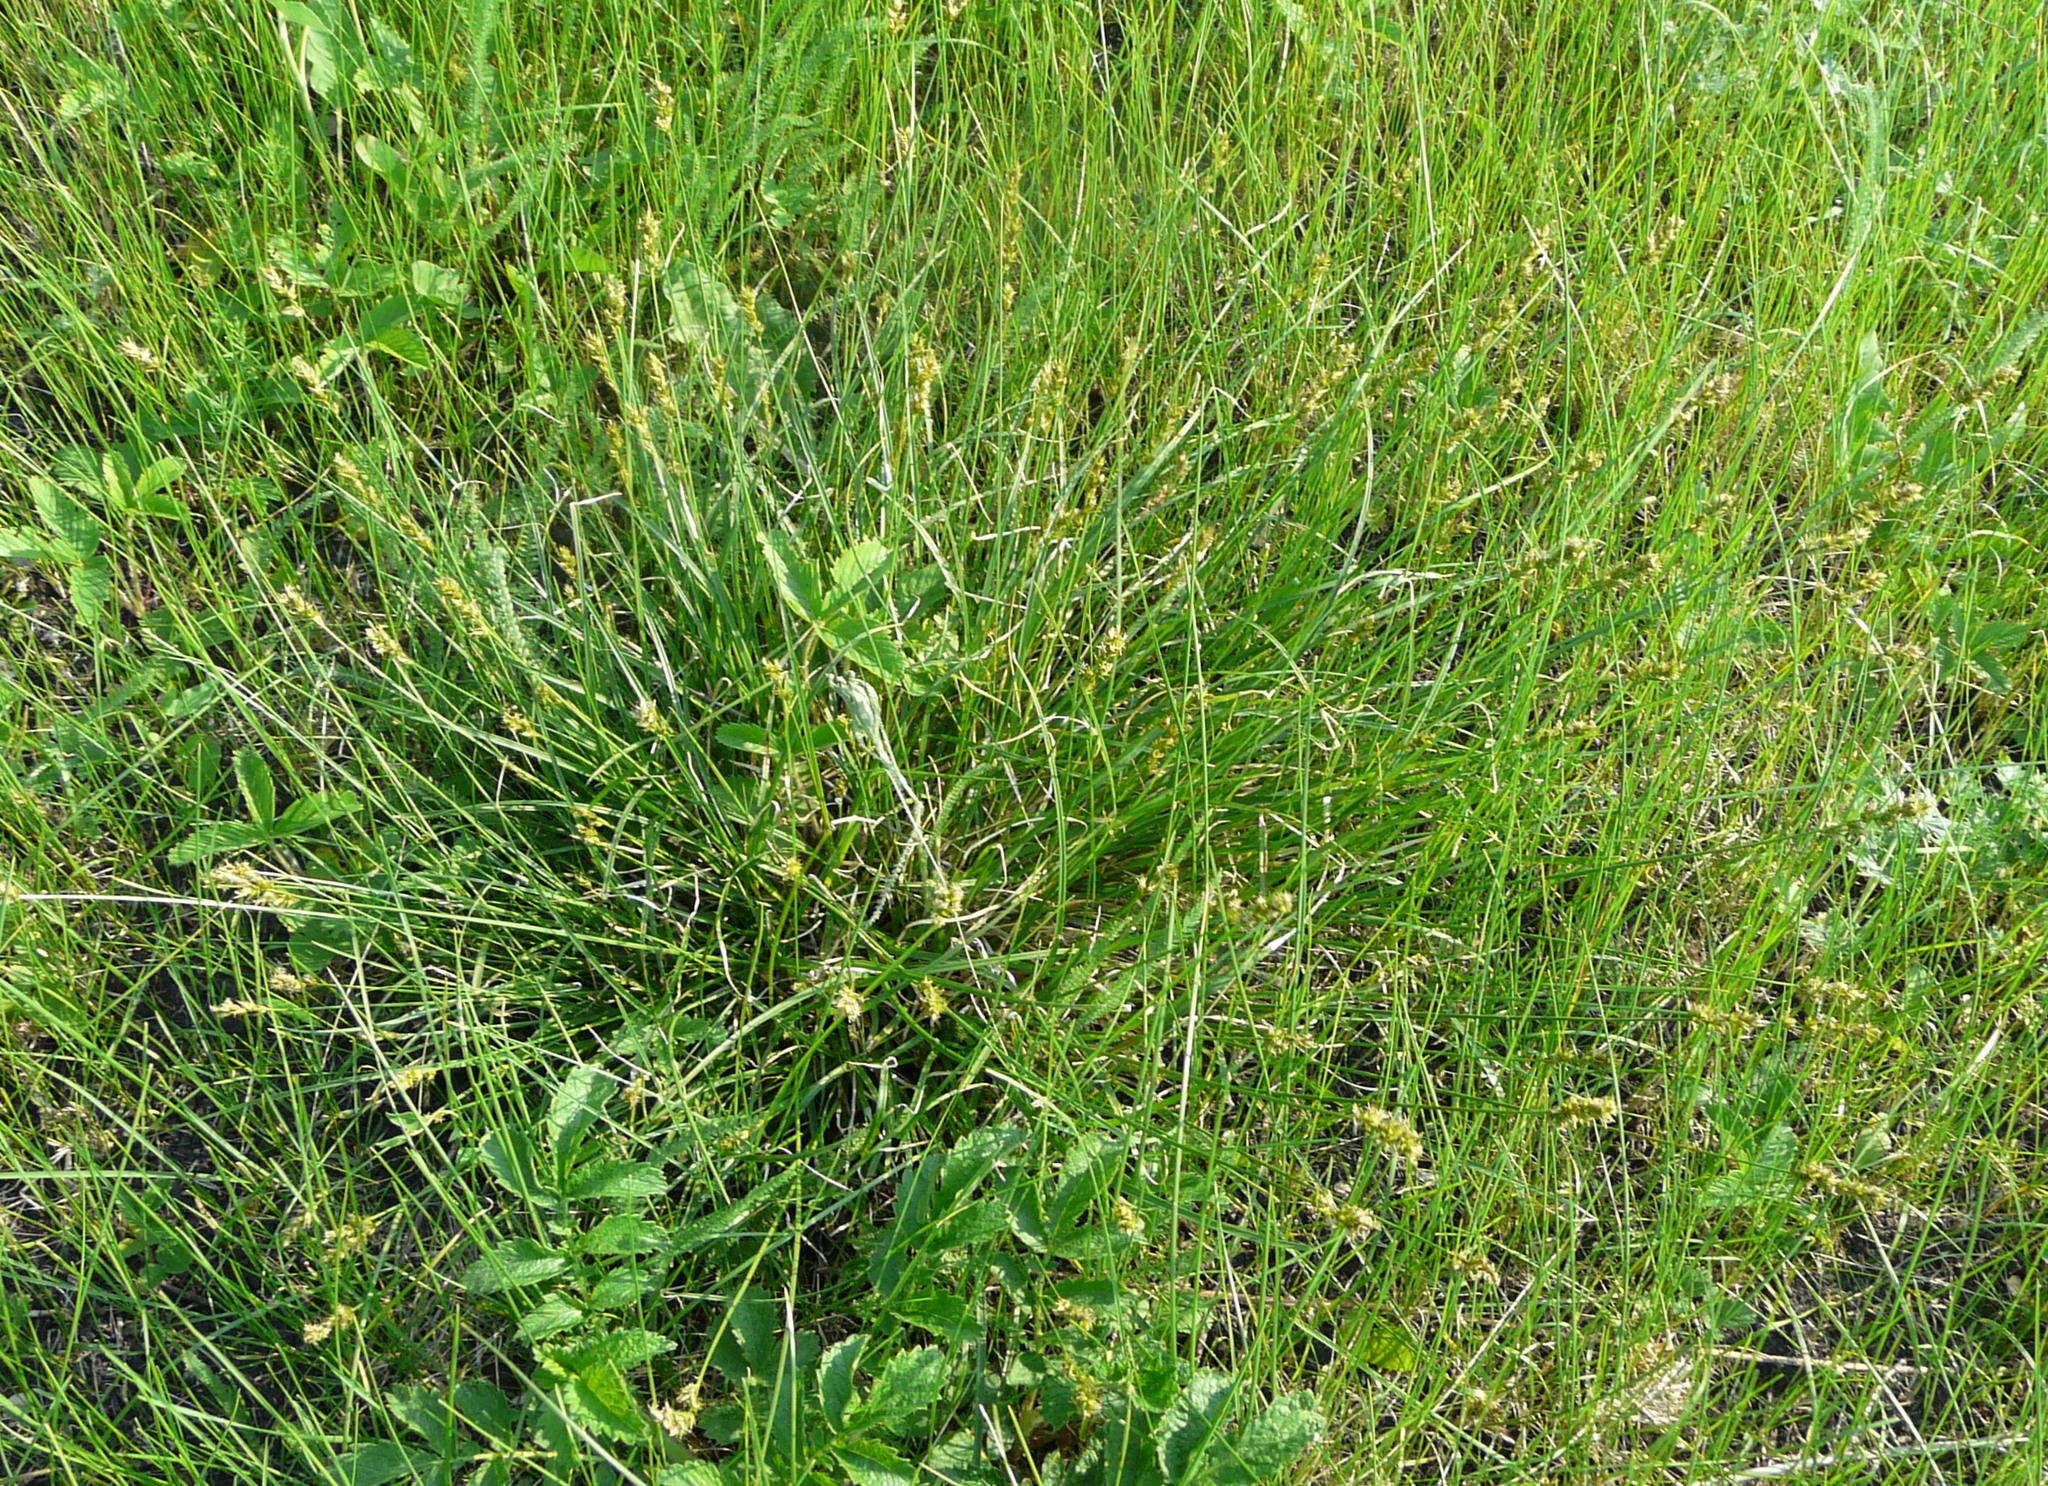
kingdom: Plantae
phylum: Tracheophyta
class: Liliopsida
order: Poales
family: Cyperaceae
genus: Carex
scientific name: Carex spicata
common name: Spiked sedge
